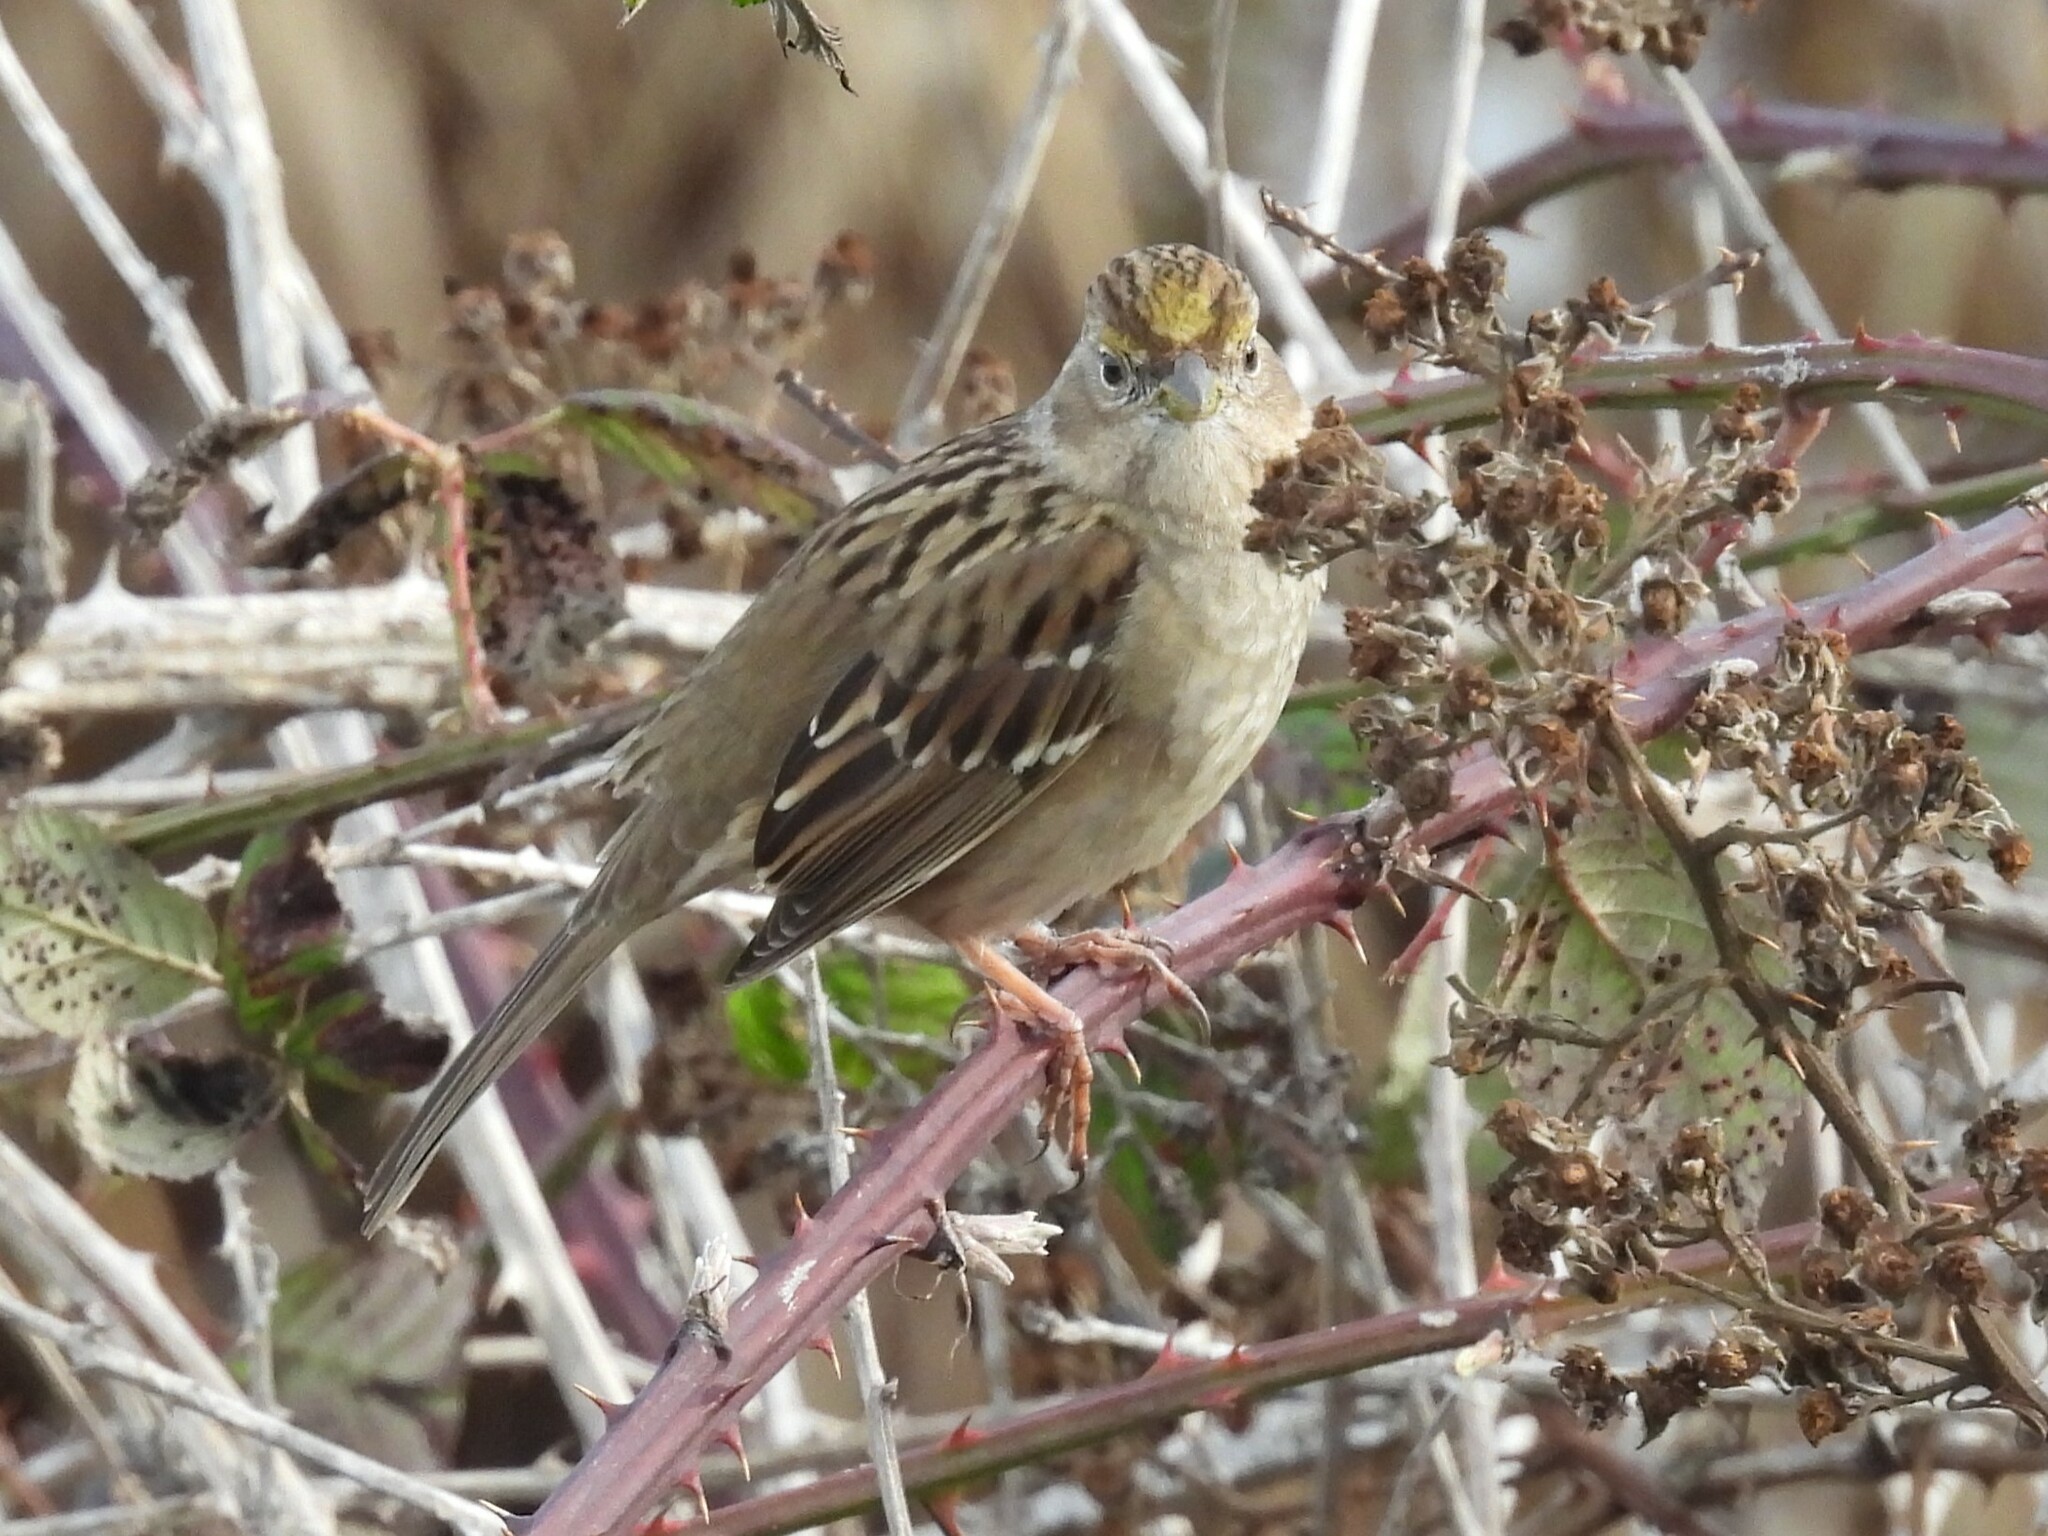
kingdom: Animalia
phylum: Chordata
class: Aves
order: Passeriformes
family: Passerellidae
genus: Zonotrichia
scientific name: Zonotrichia atricapilla
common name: Golden-crowned sparrow
